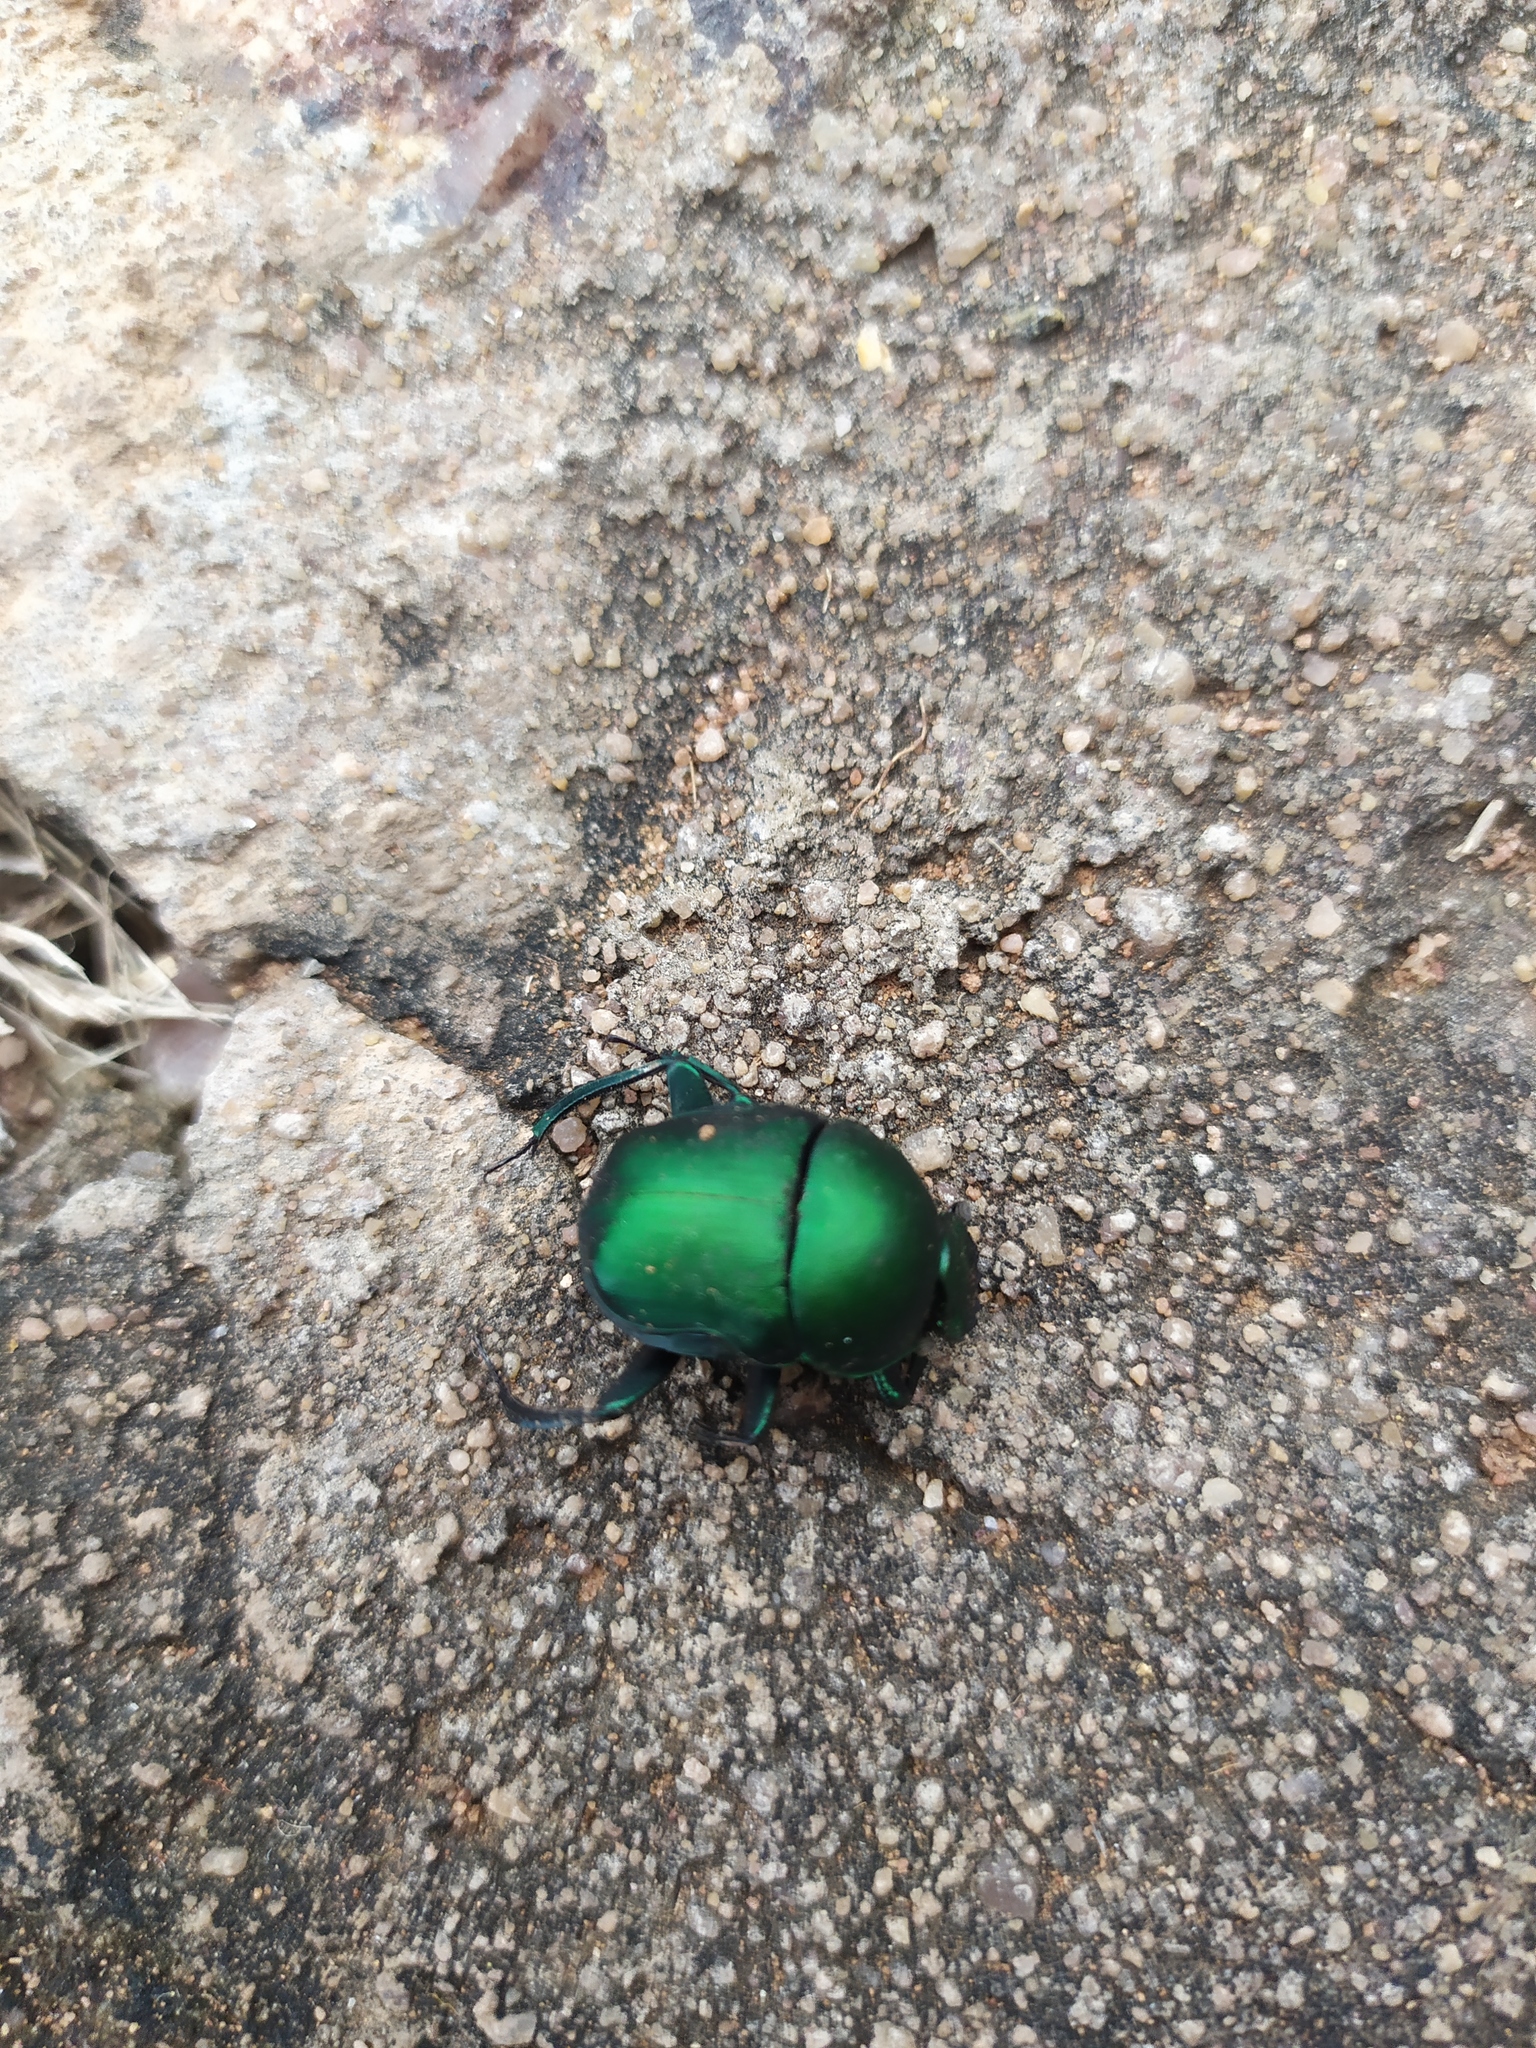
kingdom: Animalia
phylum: Arthropoda
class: Insecta
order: Coleoptera
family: Scarabaeidae
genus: Garreta
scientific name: Garreta wahlbergi
